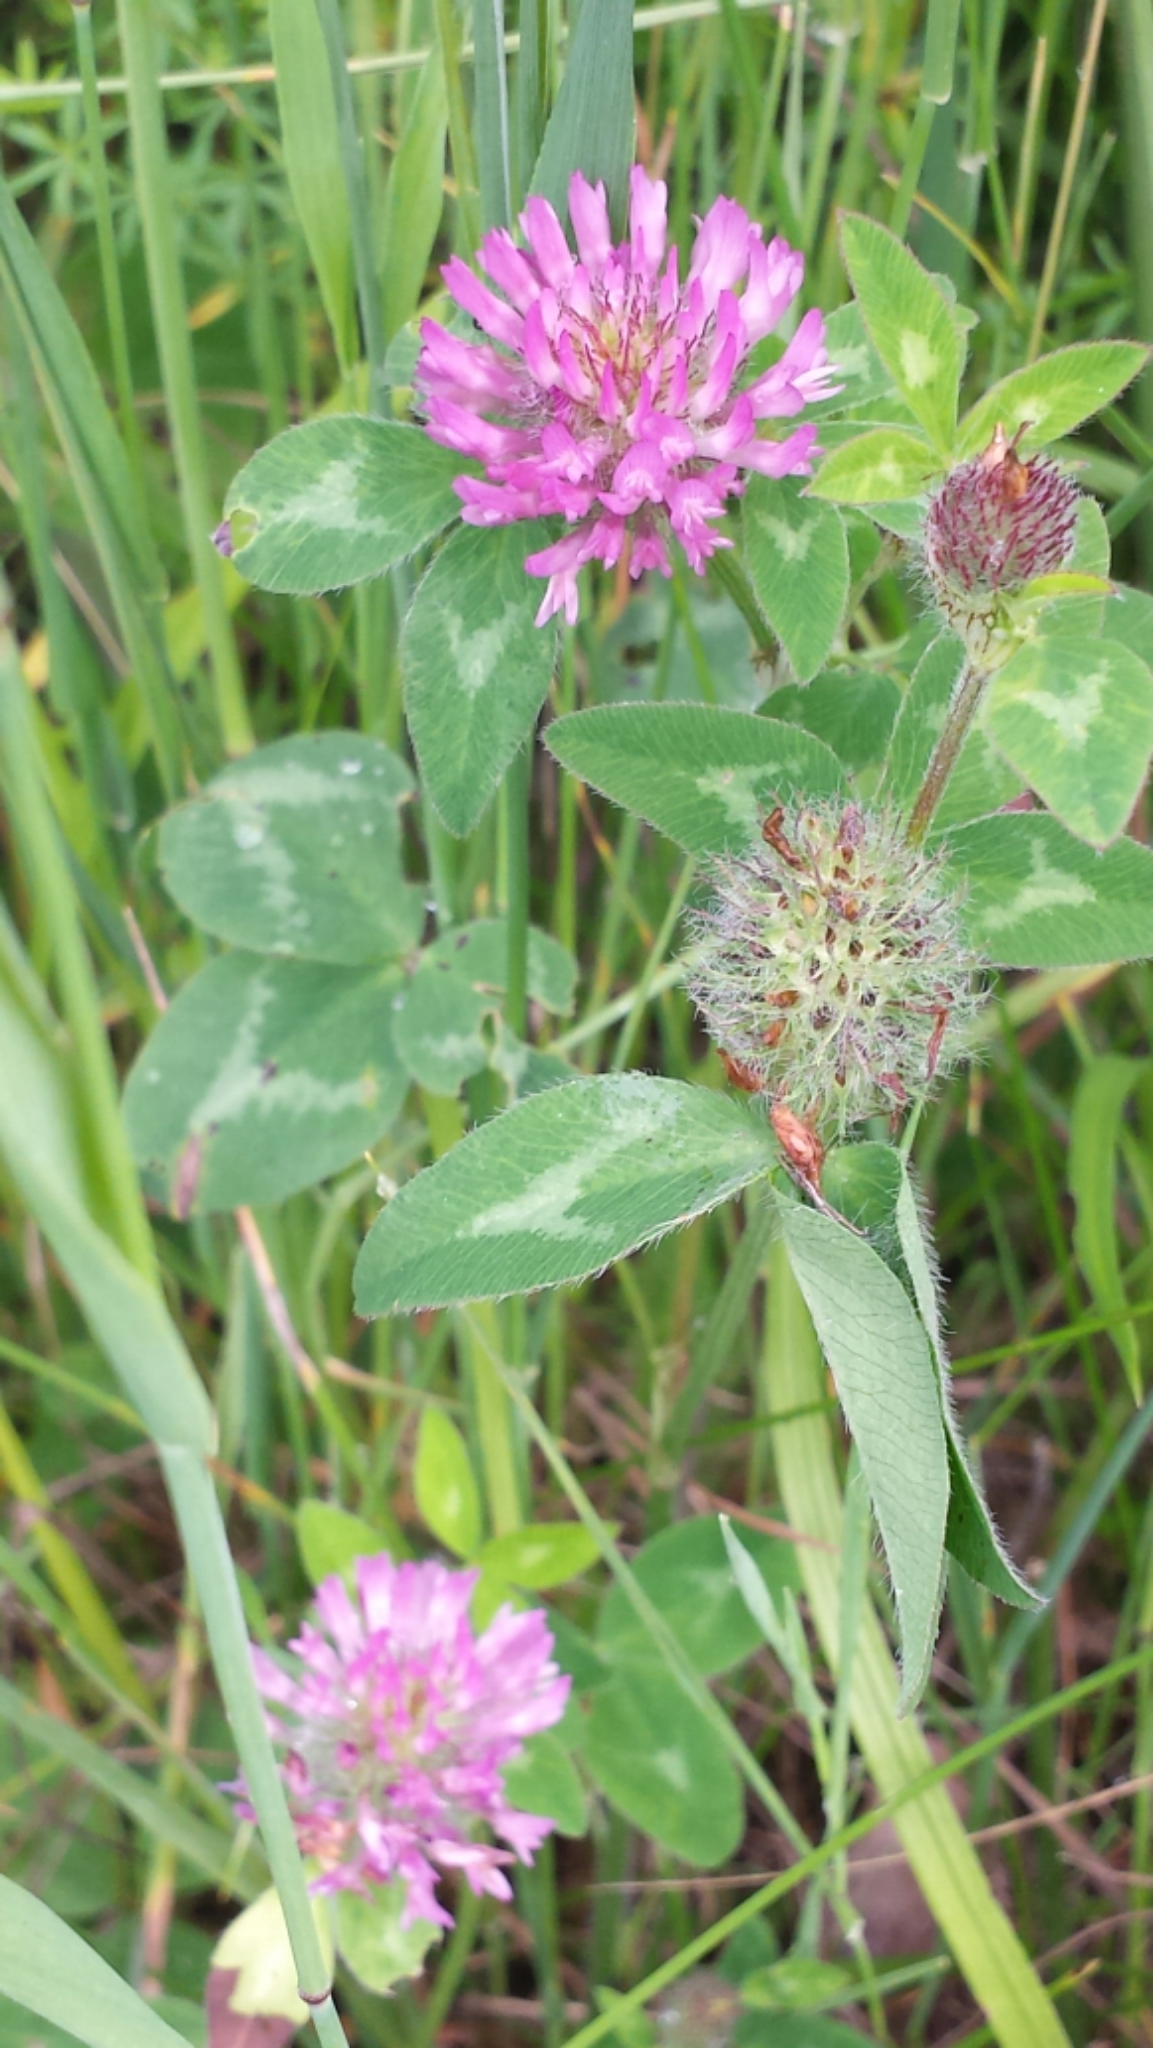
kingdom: Plantae
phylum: Tracheophyta
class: Magnoliopsida
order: Fabales
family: Fabaceae
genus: Trifolium
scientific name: Trifolium pratense
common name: Red clover
